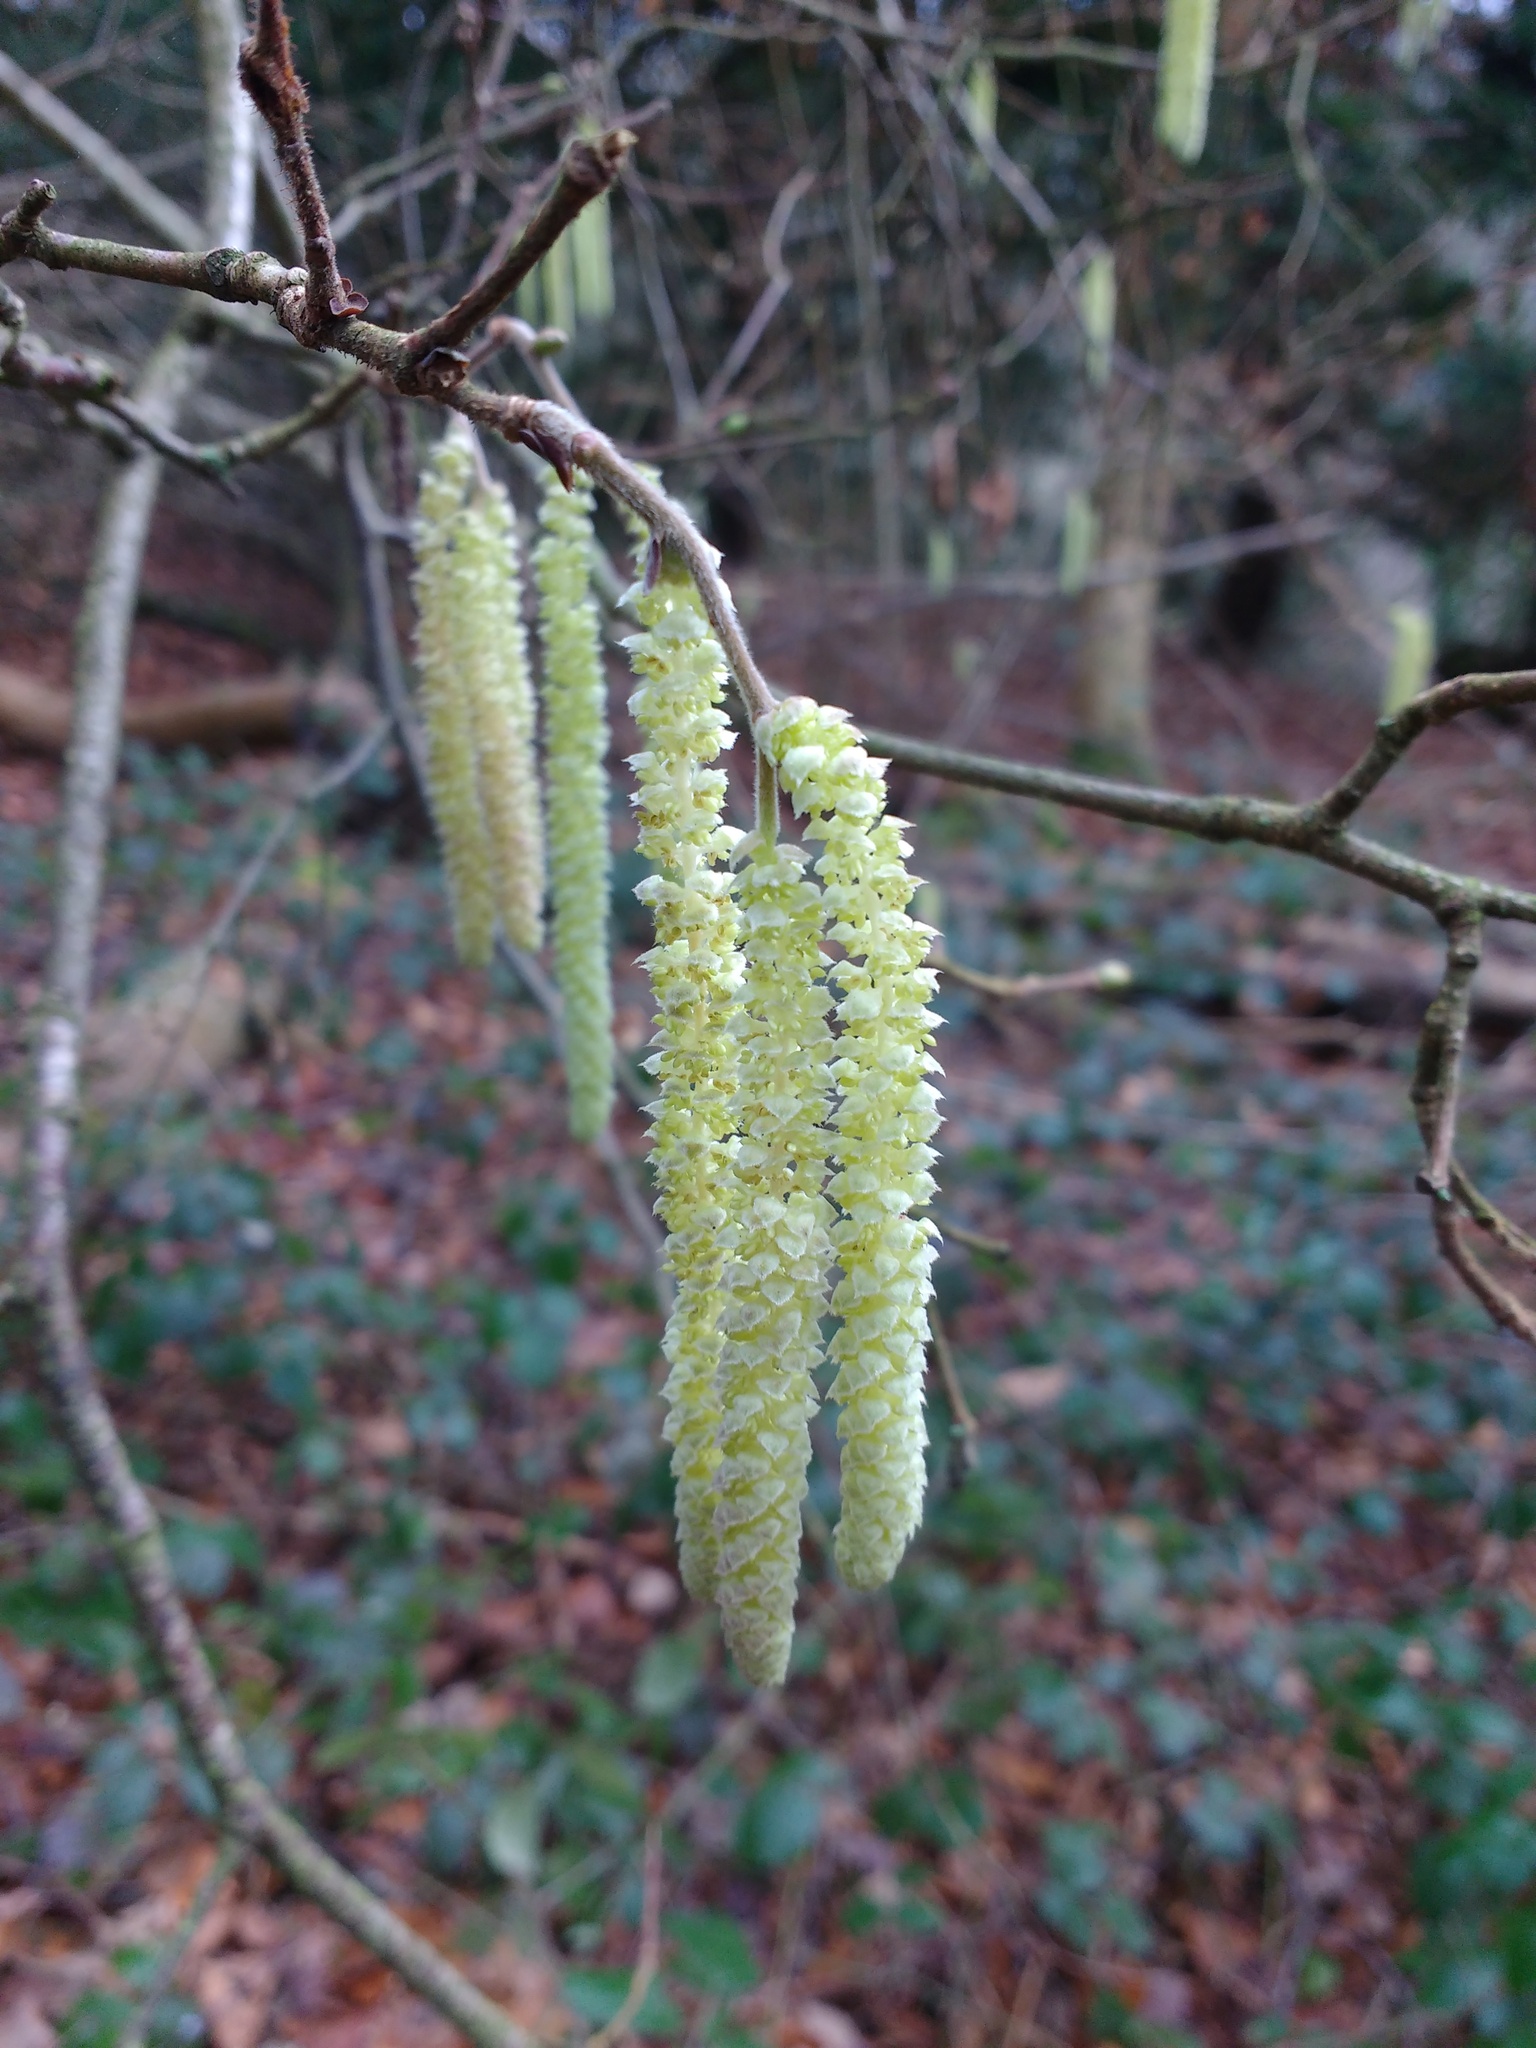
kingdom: Plantae
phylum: Tracheophyta
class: Magnoliopsida
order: Fagales
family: Betulaceae
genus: Corylus
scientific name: Corylus avellana
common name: European hazel
